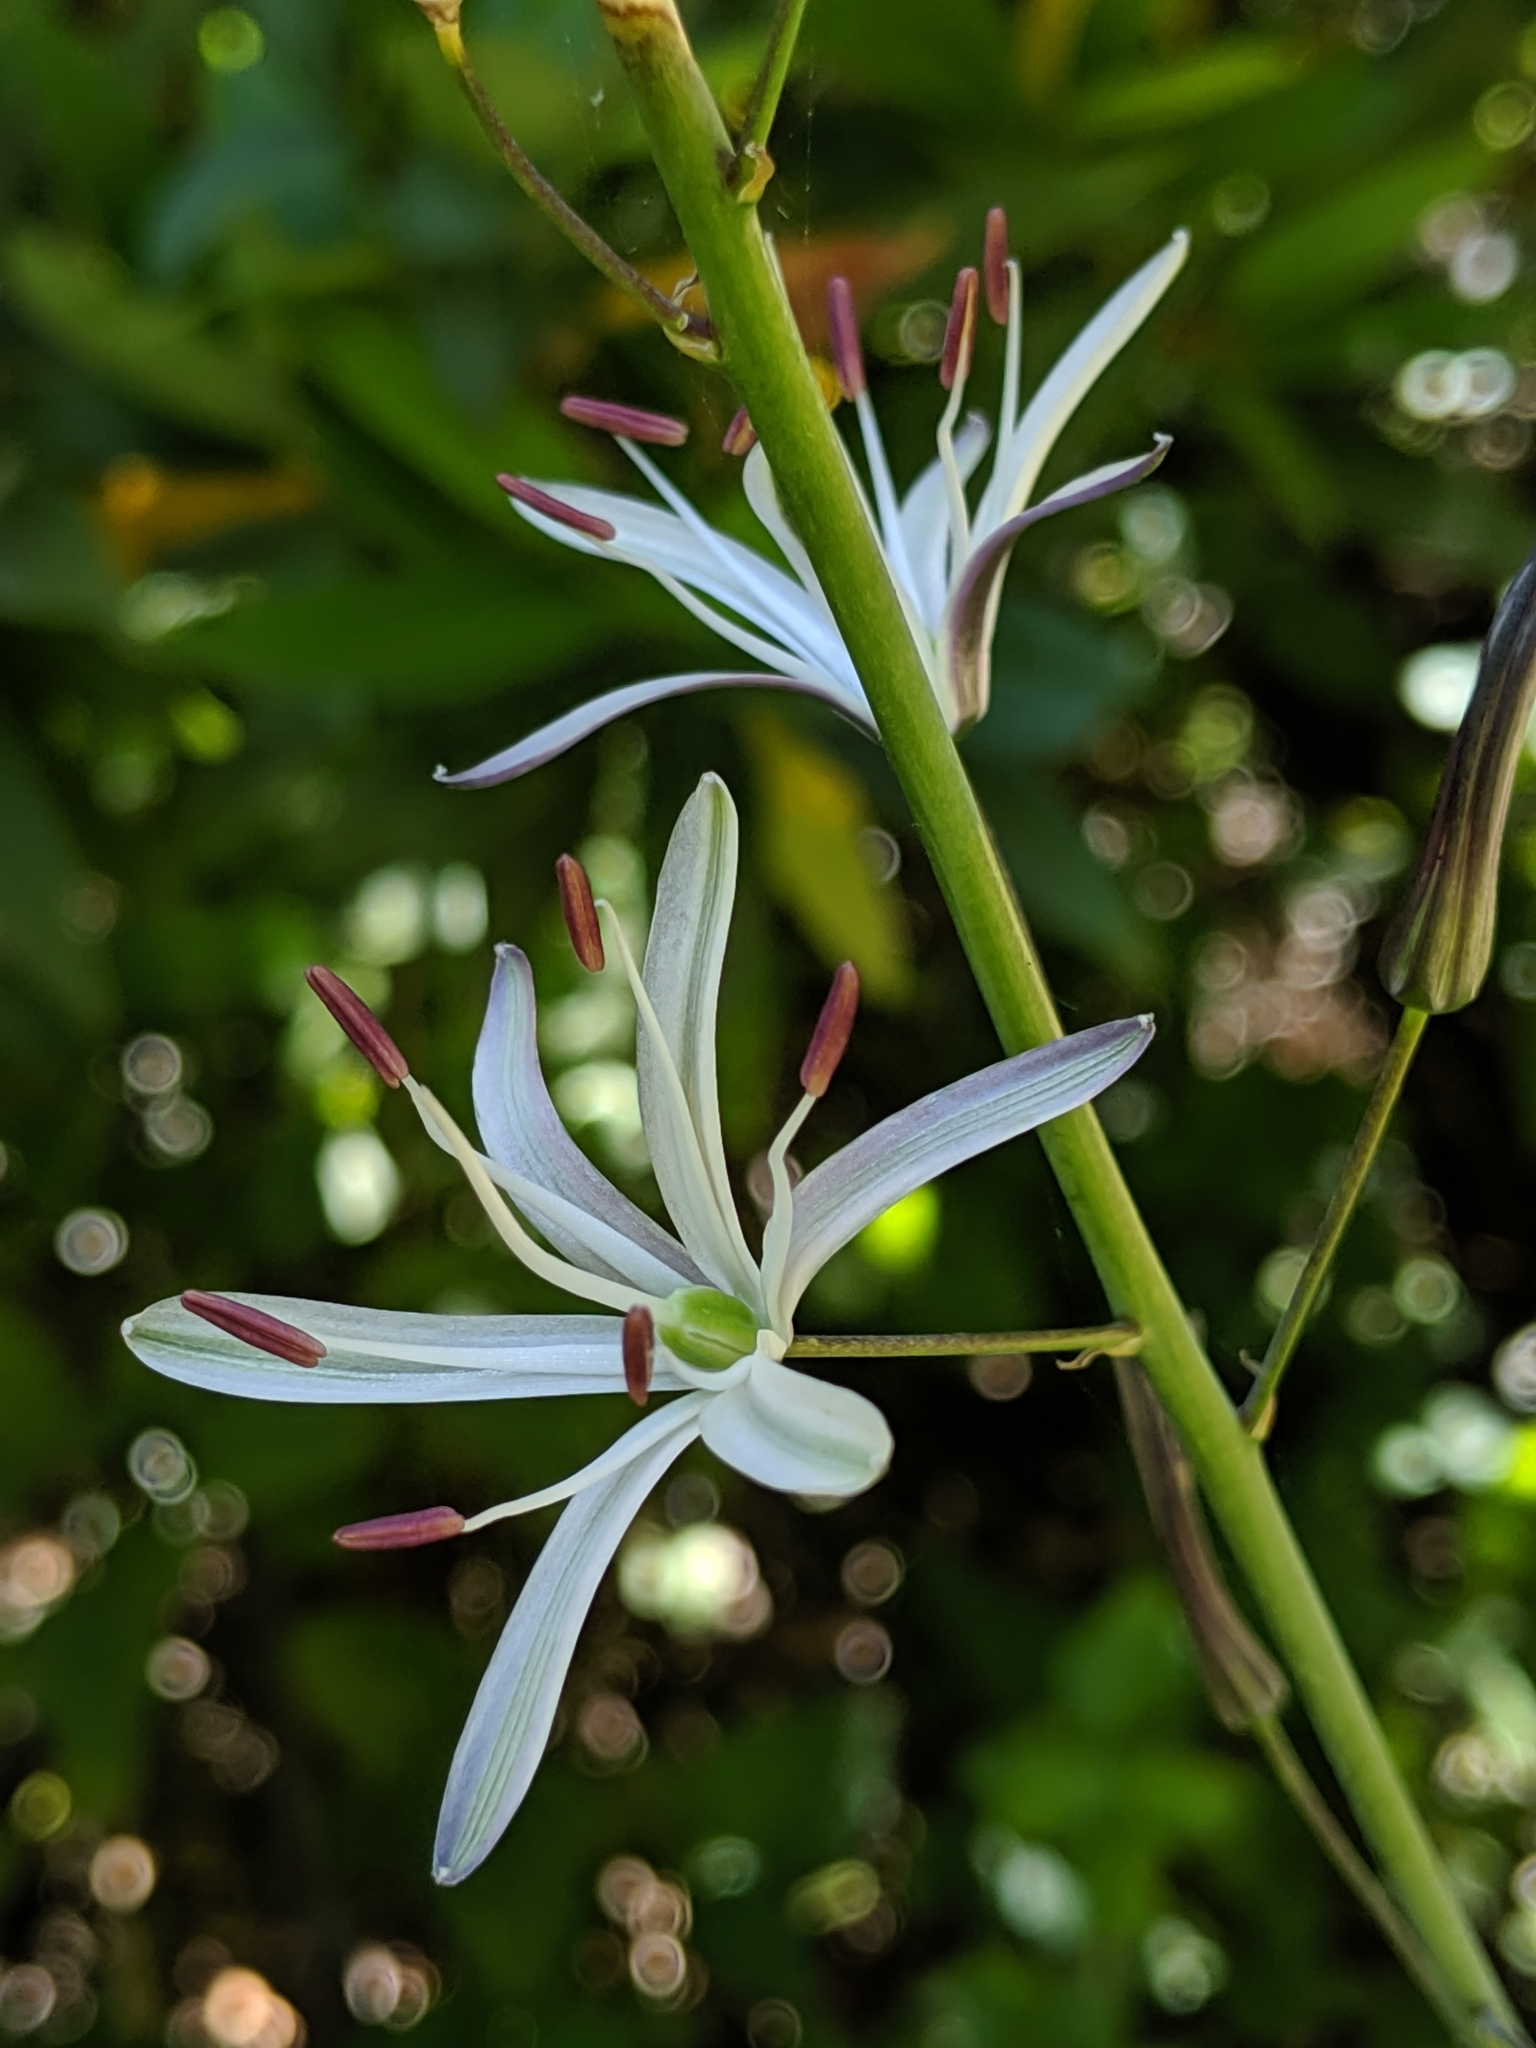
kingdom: Plantae
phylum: Tracheophyta
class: Liliopsida
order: Asparagales
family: Asparagaceae
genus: Chlorogalum
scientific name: Chlorogalum pomeridianum
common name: Amole
